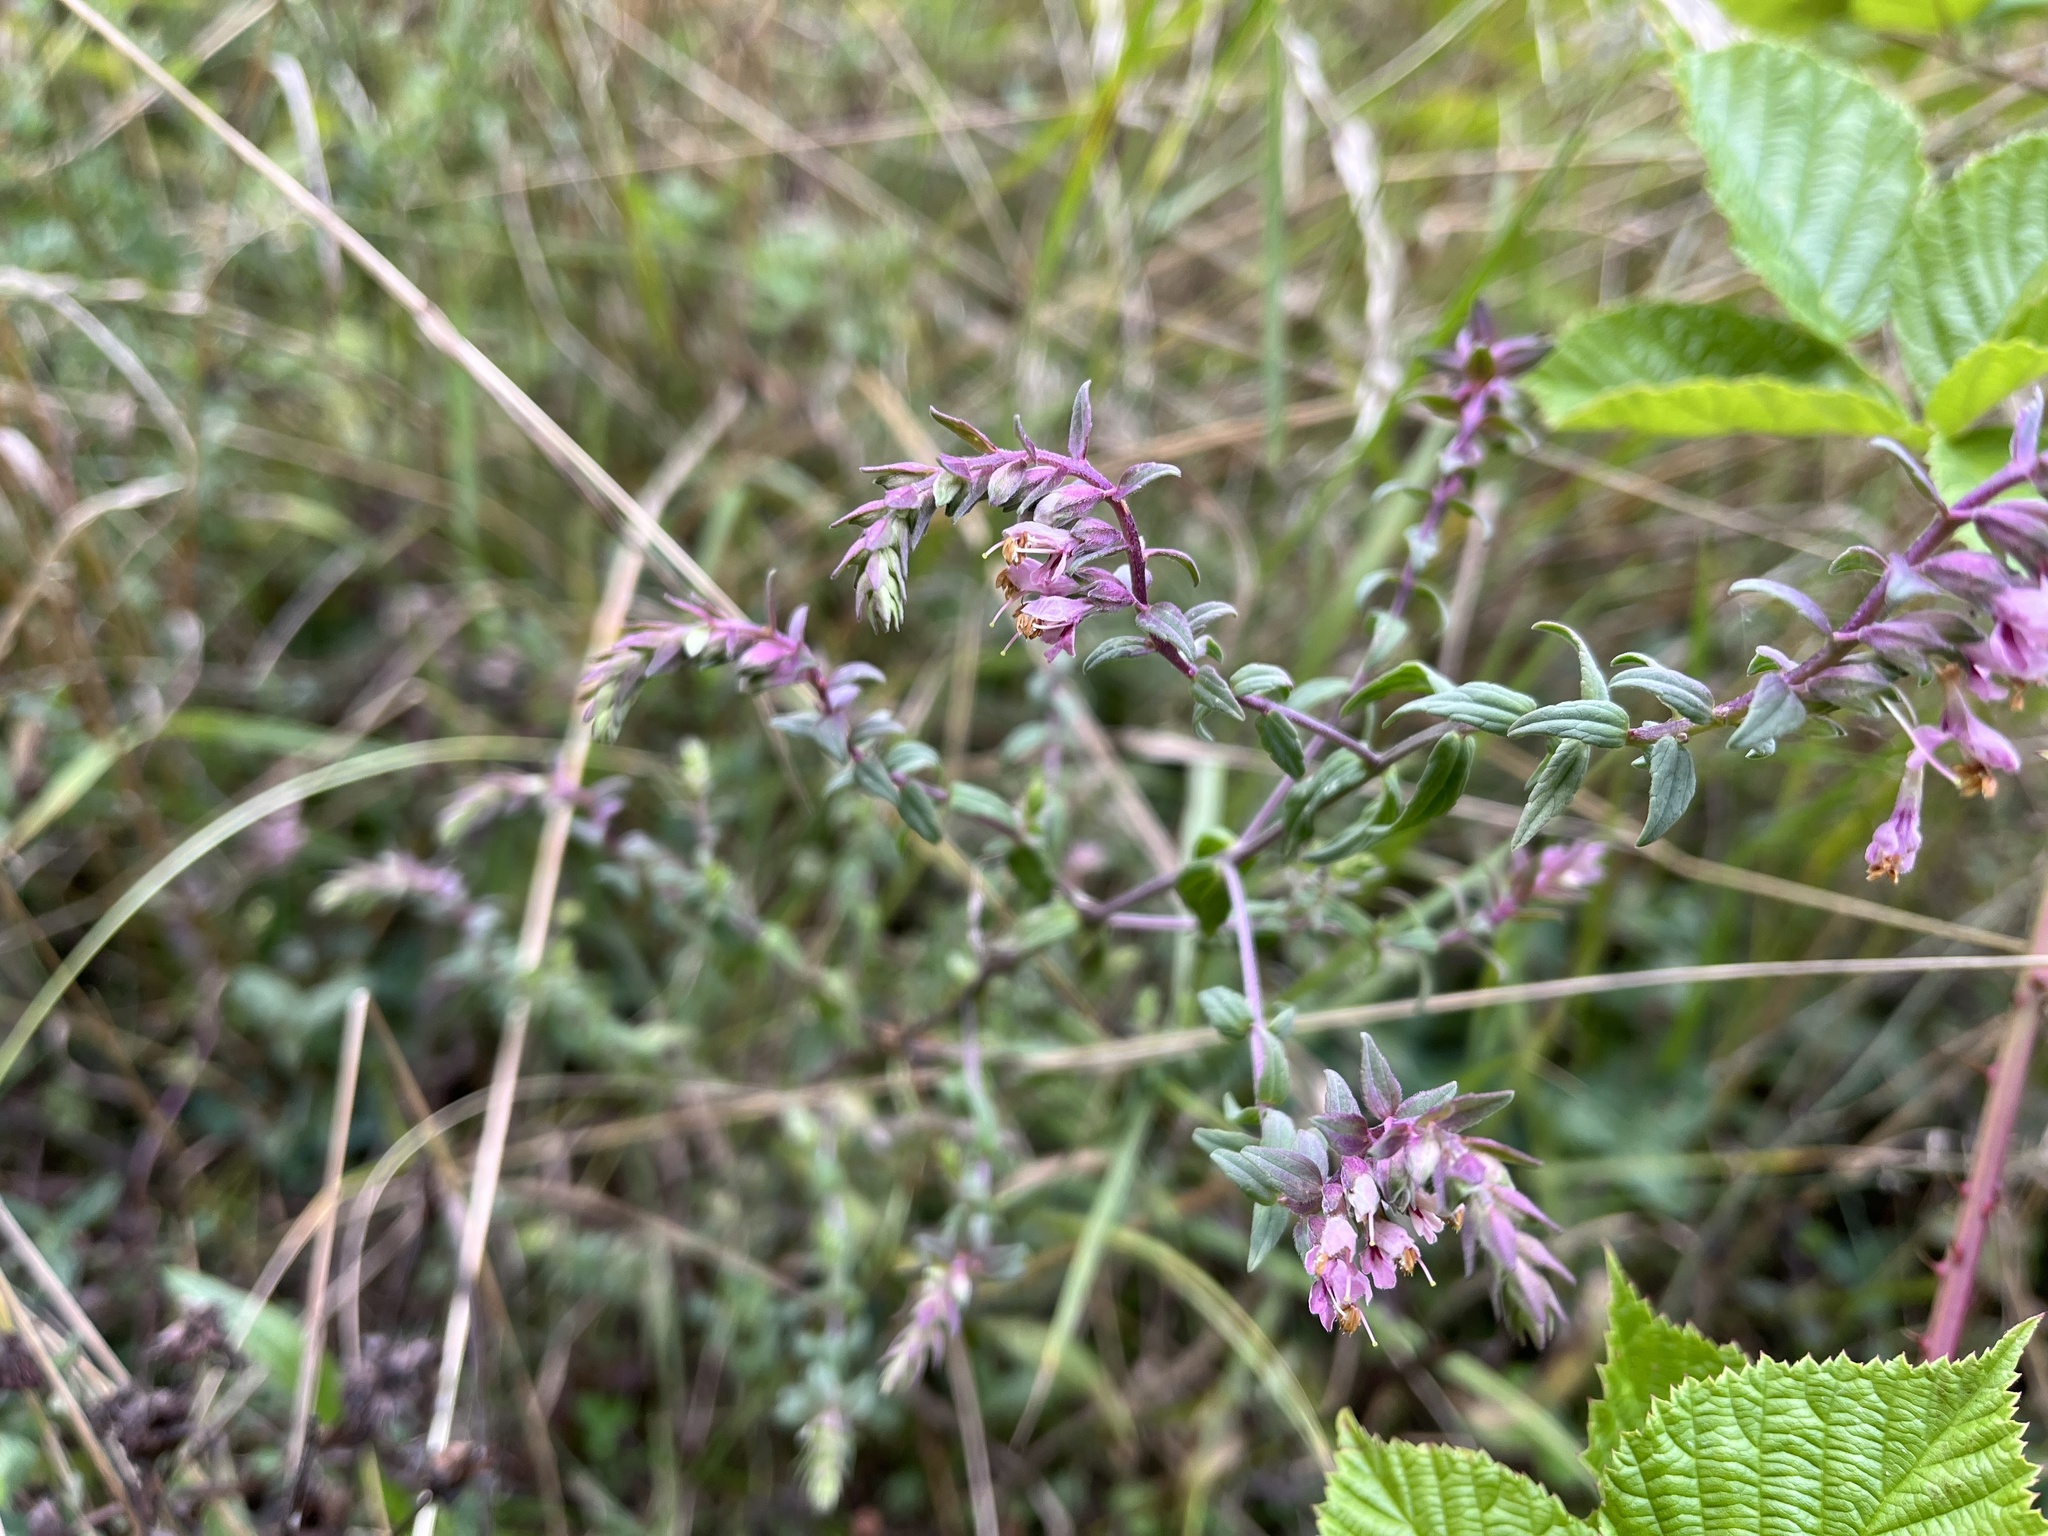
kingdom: Plantae
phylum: Tracheophyta
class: Magnoliopsida
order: Lamiales
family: Orobanchaceae
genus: Odontites
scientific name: Odontites vulgaris
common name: Broomrape
